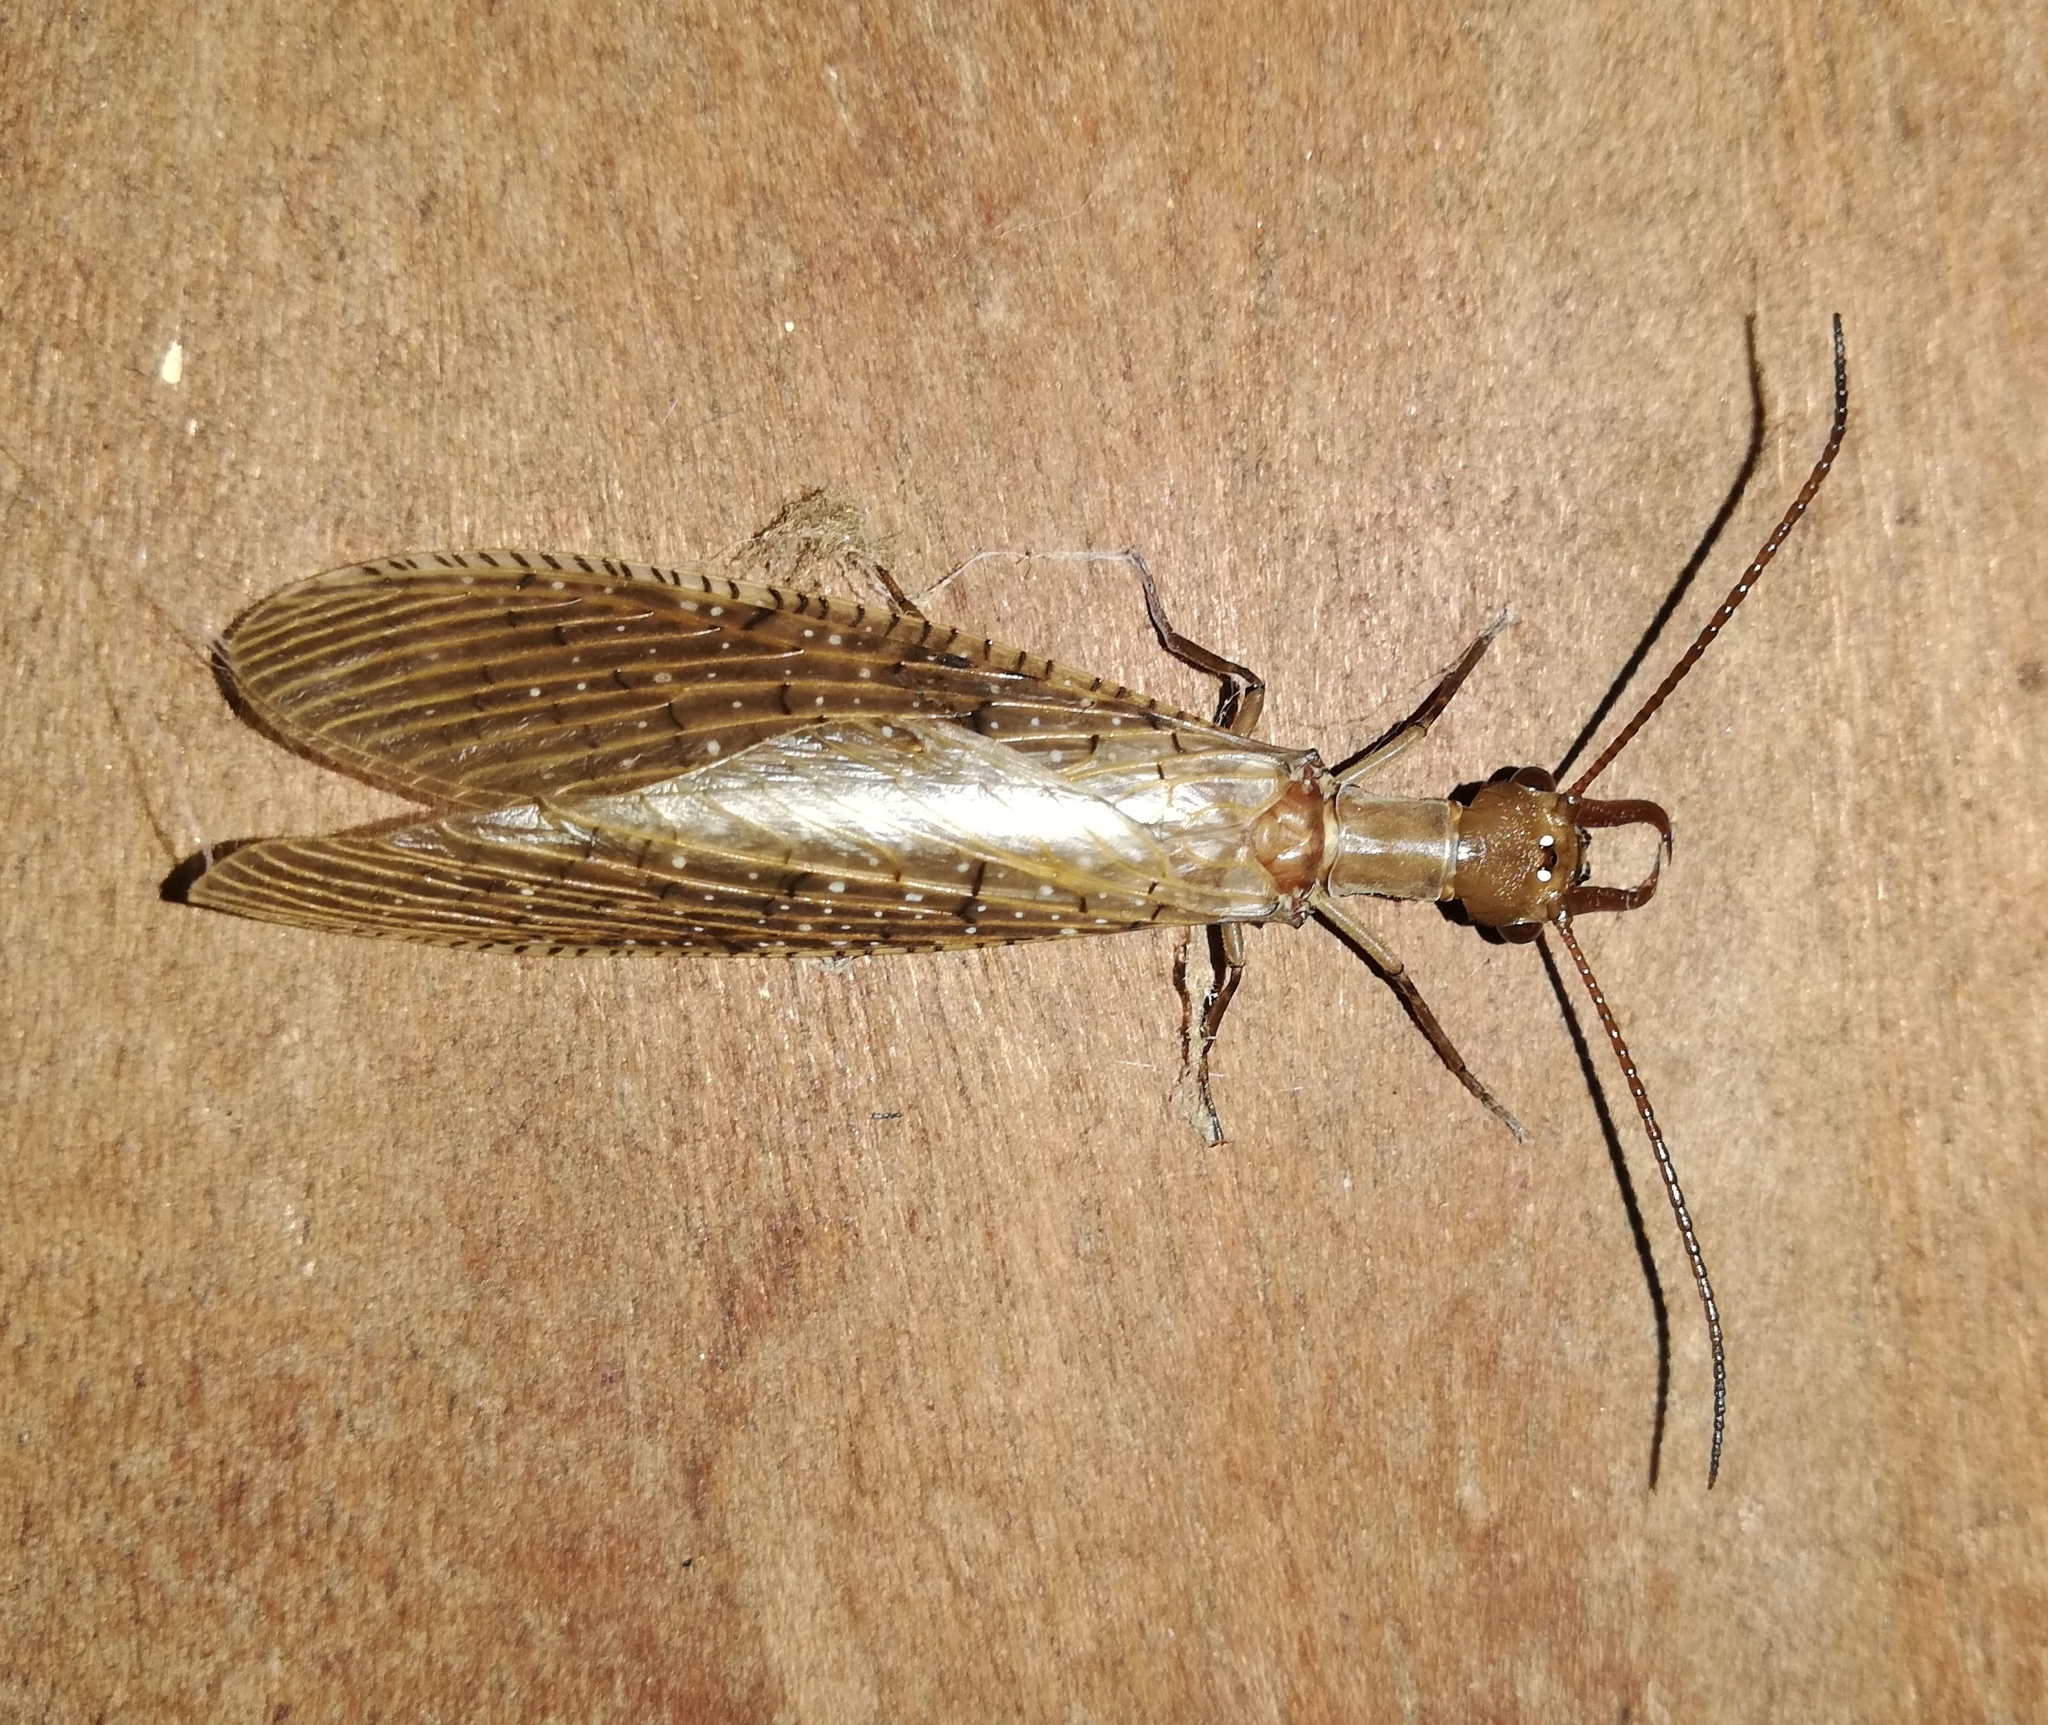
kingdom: Animalia
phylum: Arthropoda
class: Insecta
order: Megaloptera
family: Corydalidae
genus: Corydalus
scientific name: Corydalus luteus
